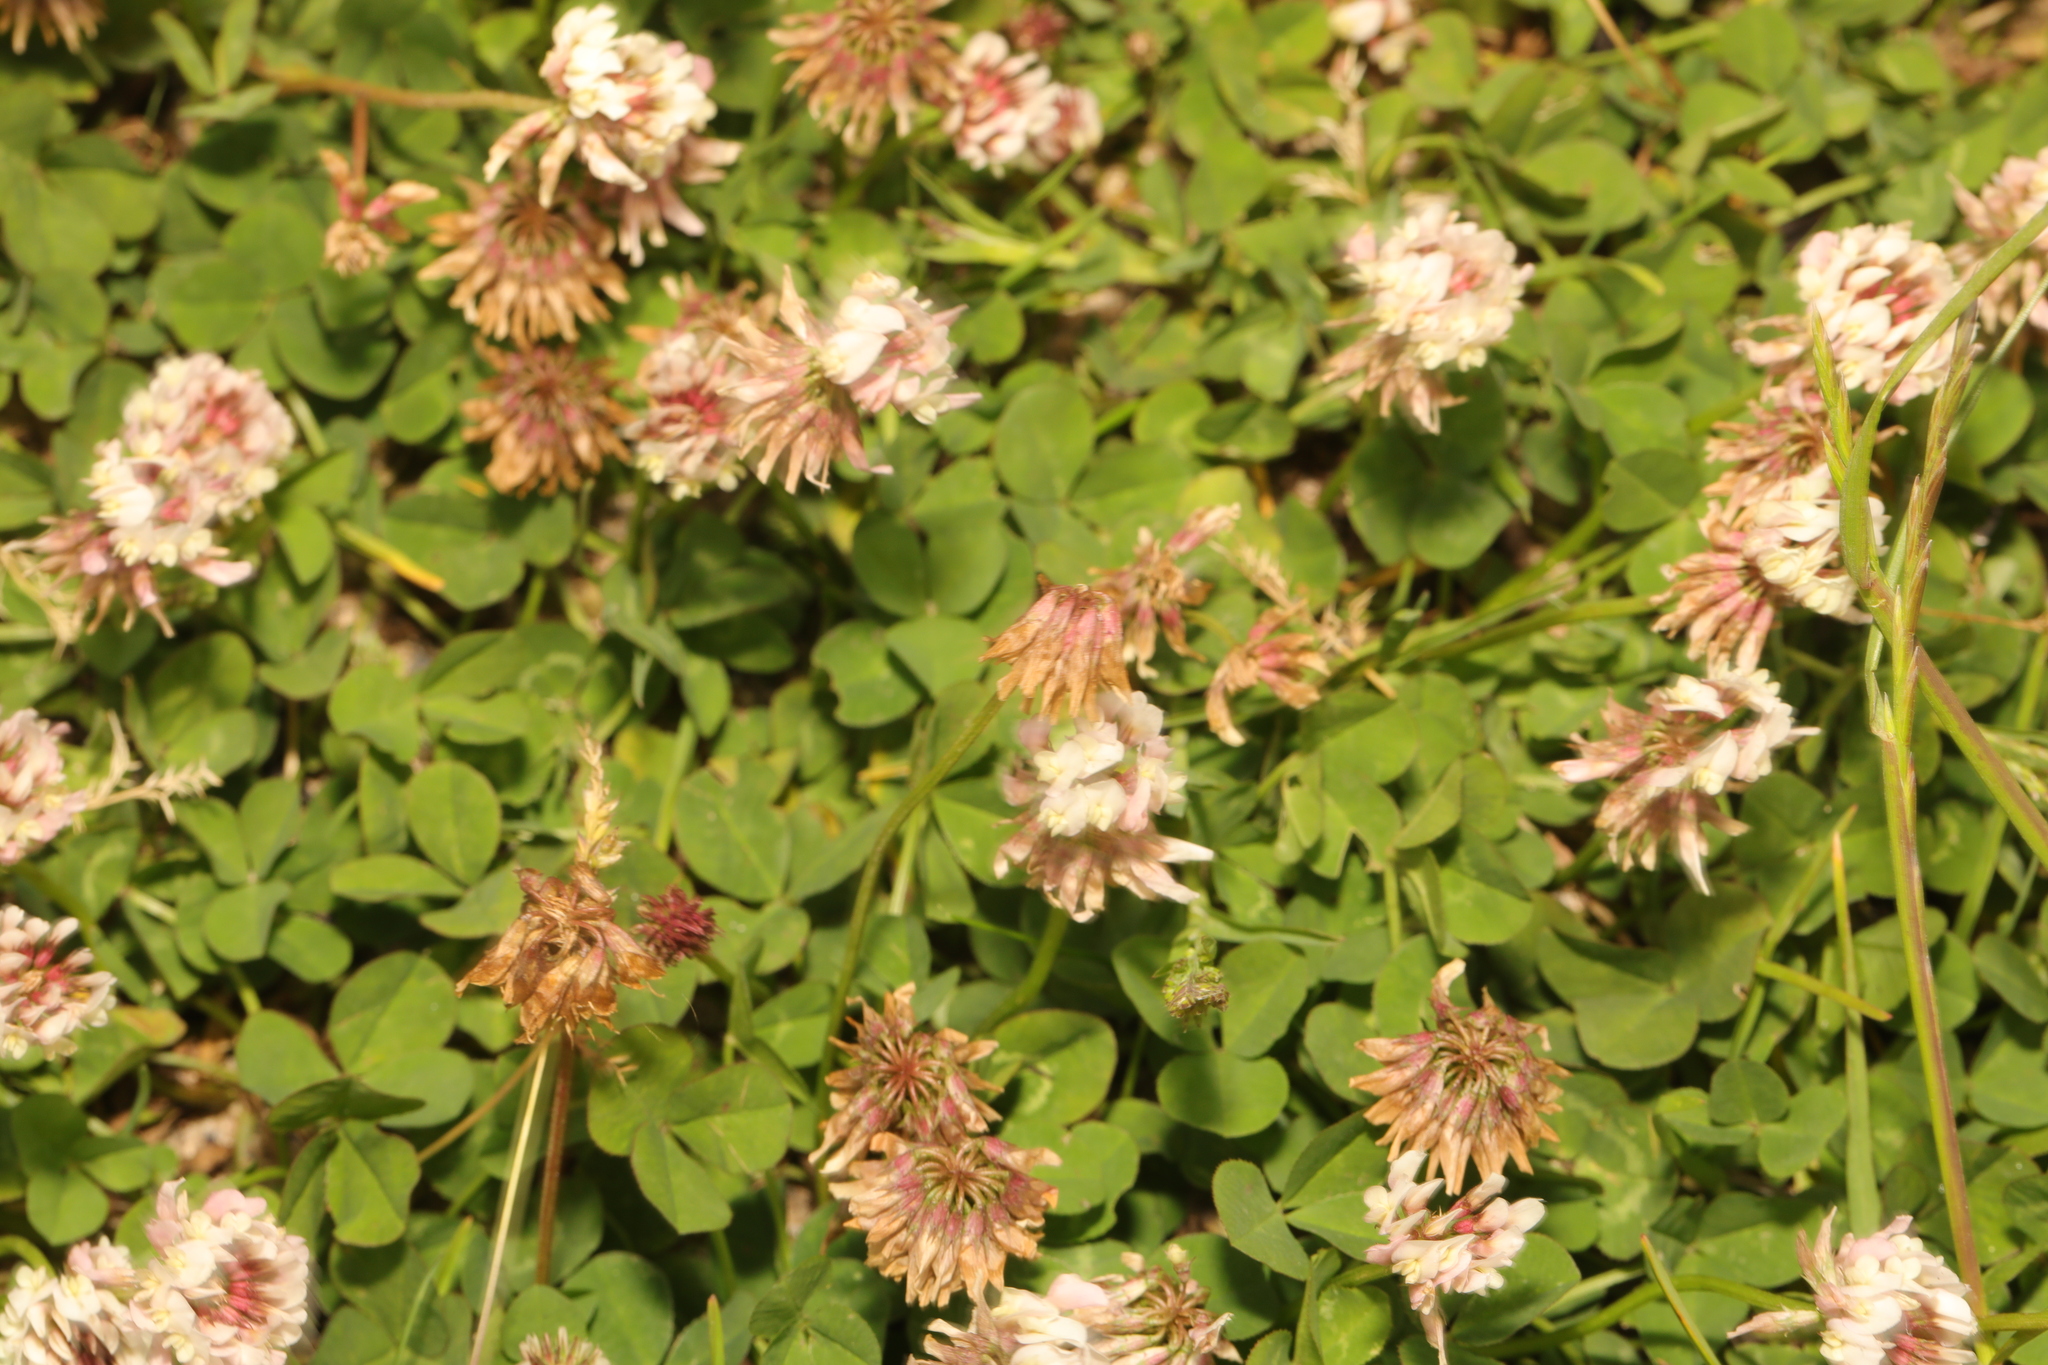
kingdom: Plantae
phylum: Tracheophyta
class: Magnoliopsida
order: Fabales
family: Fabaceae
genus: Trifolium
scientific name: Trifolium repens
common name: White clover
